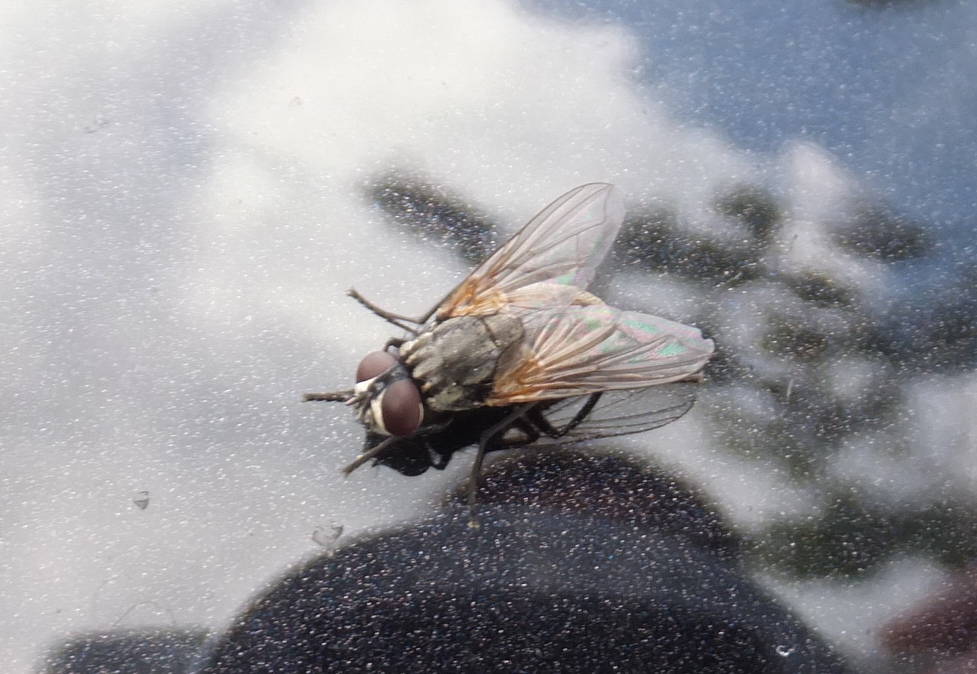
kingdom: Animalia
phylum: Arthropoda
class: Insecta
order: Diptera
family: Muscidae
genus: Musca
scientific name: Musca domestica
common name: House fly
